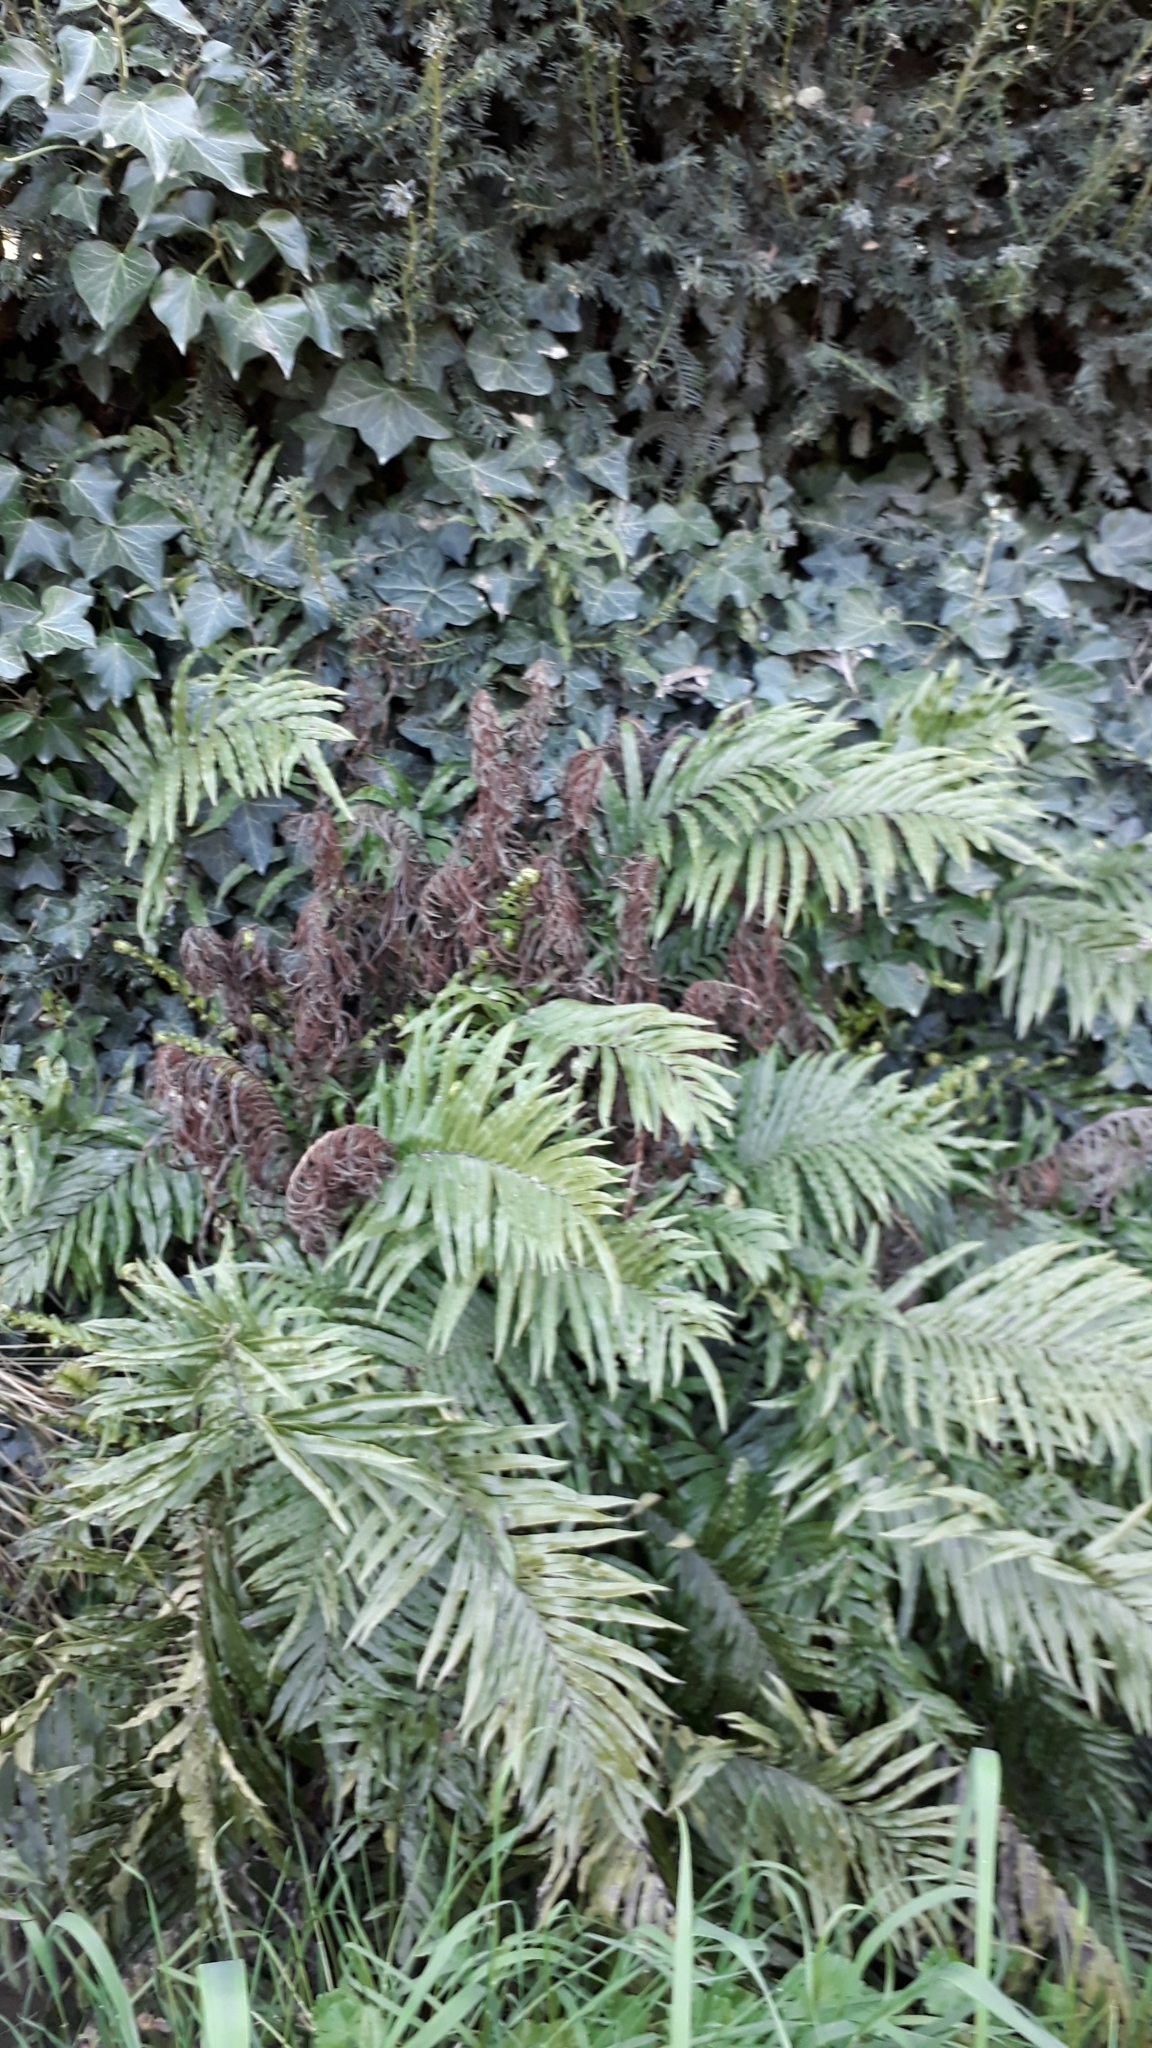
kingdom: Plantae
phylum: Tracheophyta
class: Polypodiopsida
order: Polypodiales
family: Blechnaceae
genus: Parablechnum
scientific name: Parablechnum novae-zelandiae
